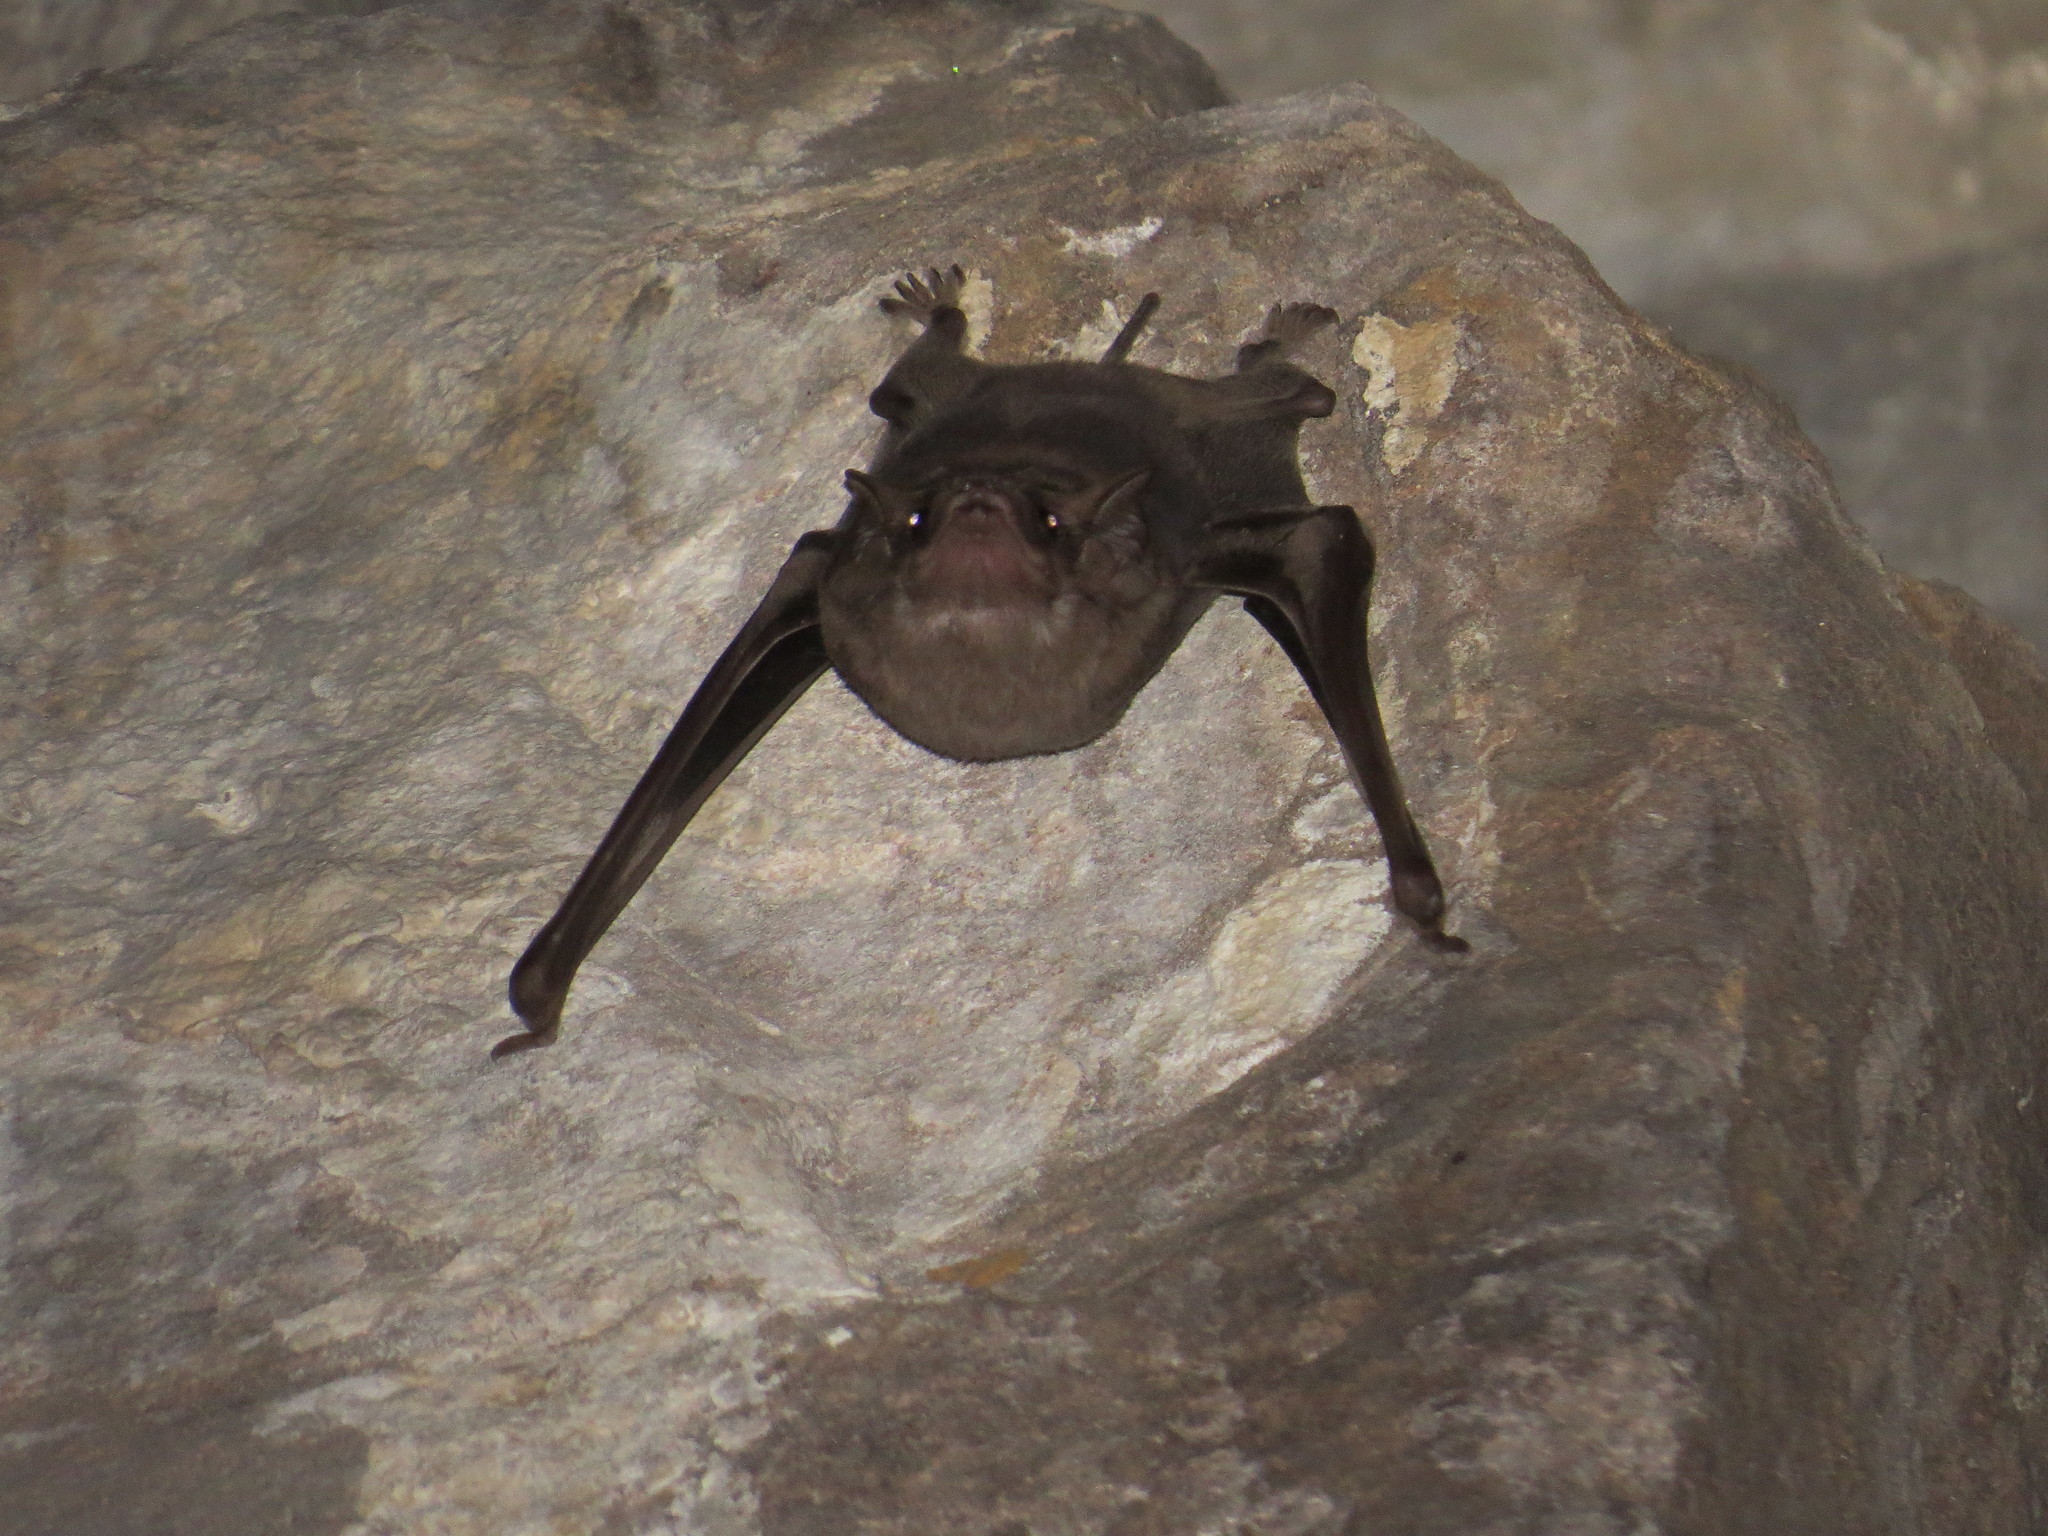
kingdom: Animalia
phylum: Chordata
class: Mammalia
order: Chiroptera
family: Emballonuridae
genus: Taphozous
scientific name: Taphozous melanopogon
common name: Black-bearded tomb bat
